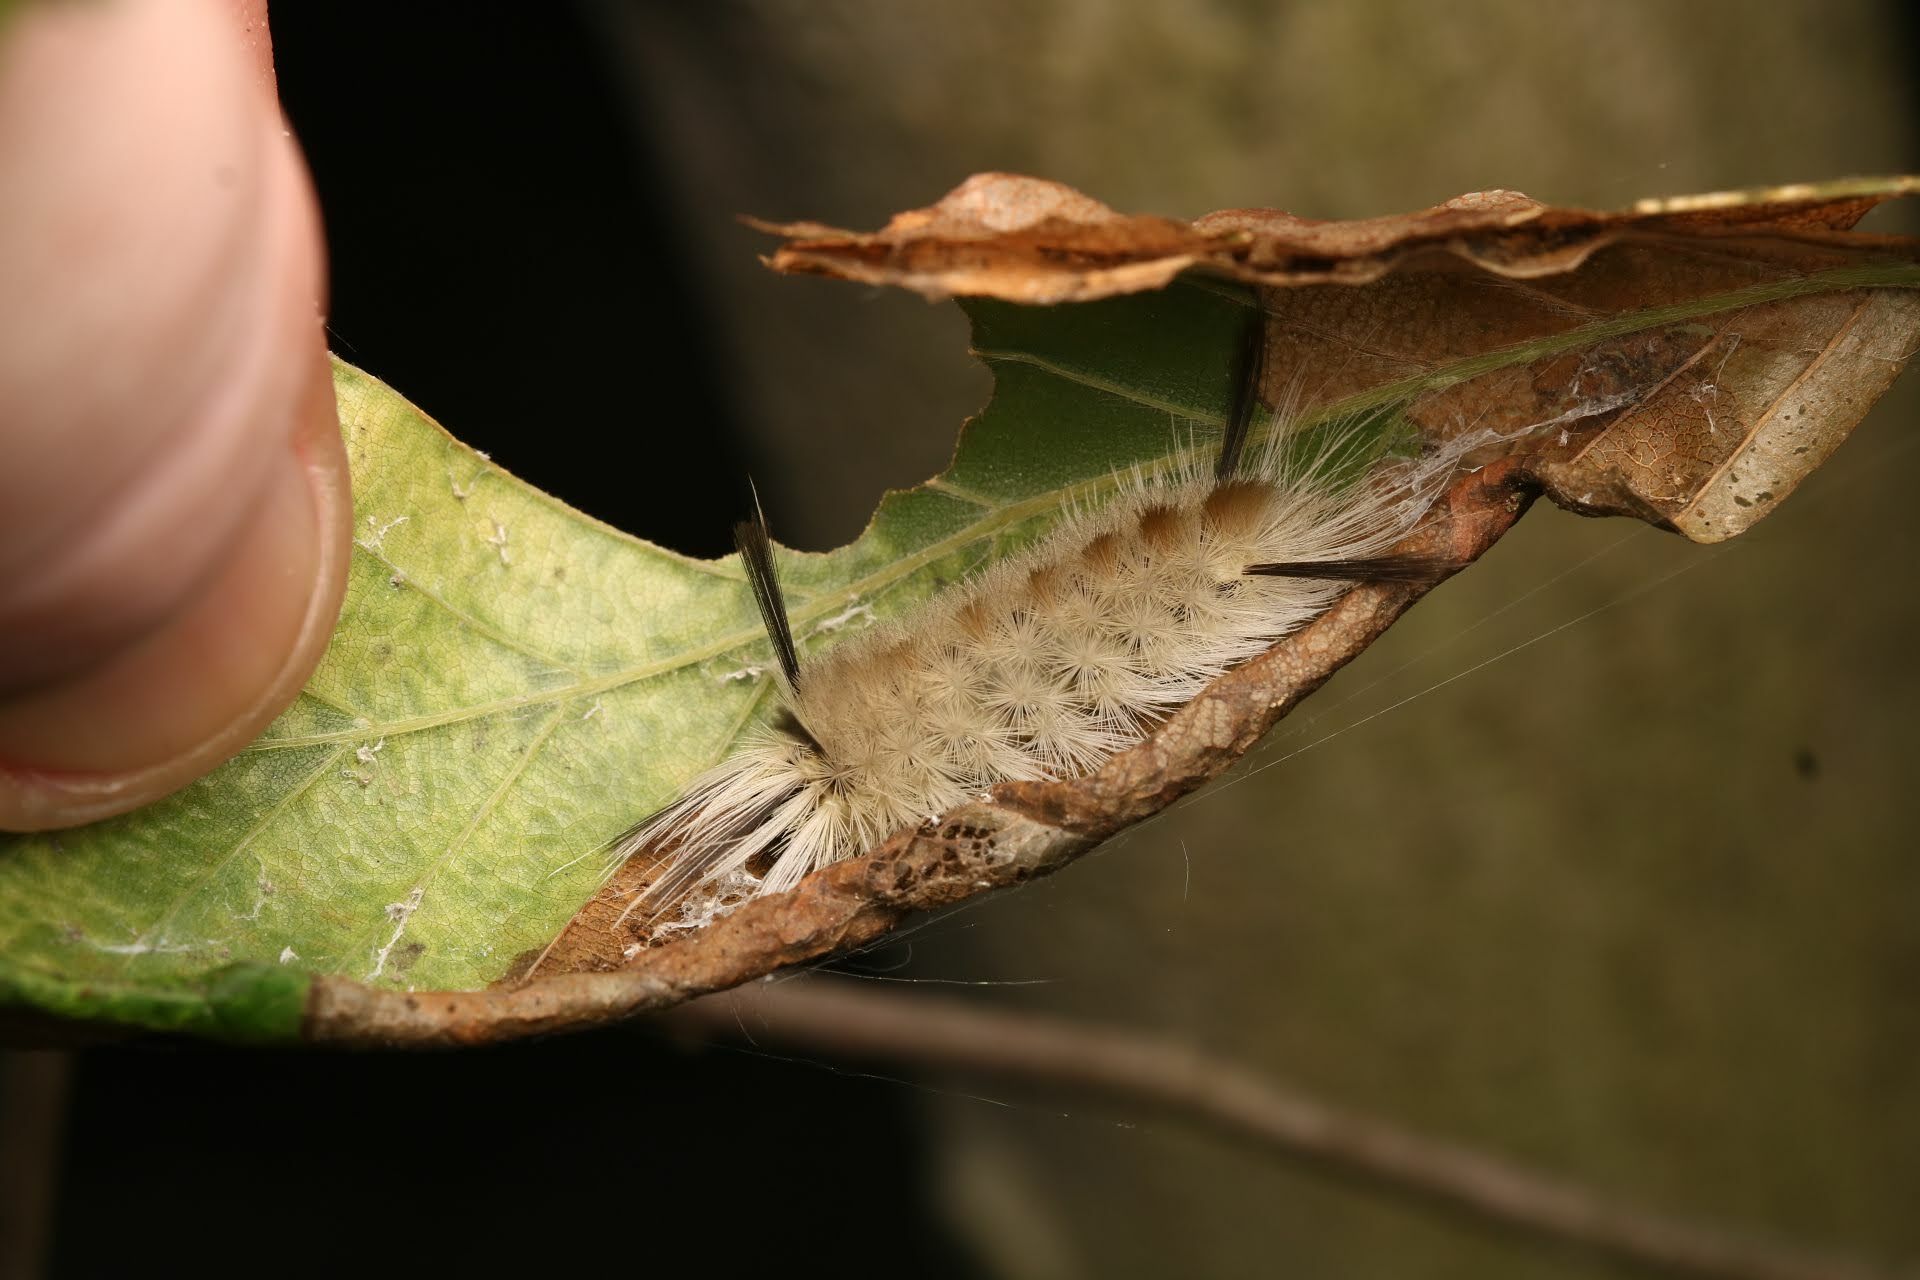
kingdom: Animalia
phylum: Arthropoda
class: Insecta
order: Lepidoptera
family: Erebidae
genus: Halysidota
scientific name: Halysidota tessellaris
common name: Banded tussock moth
